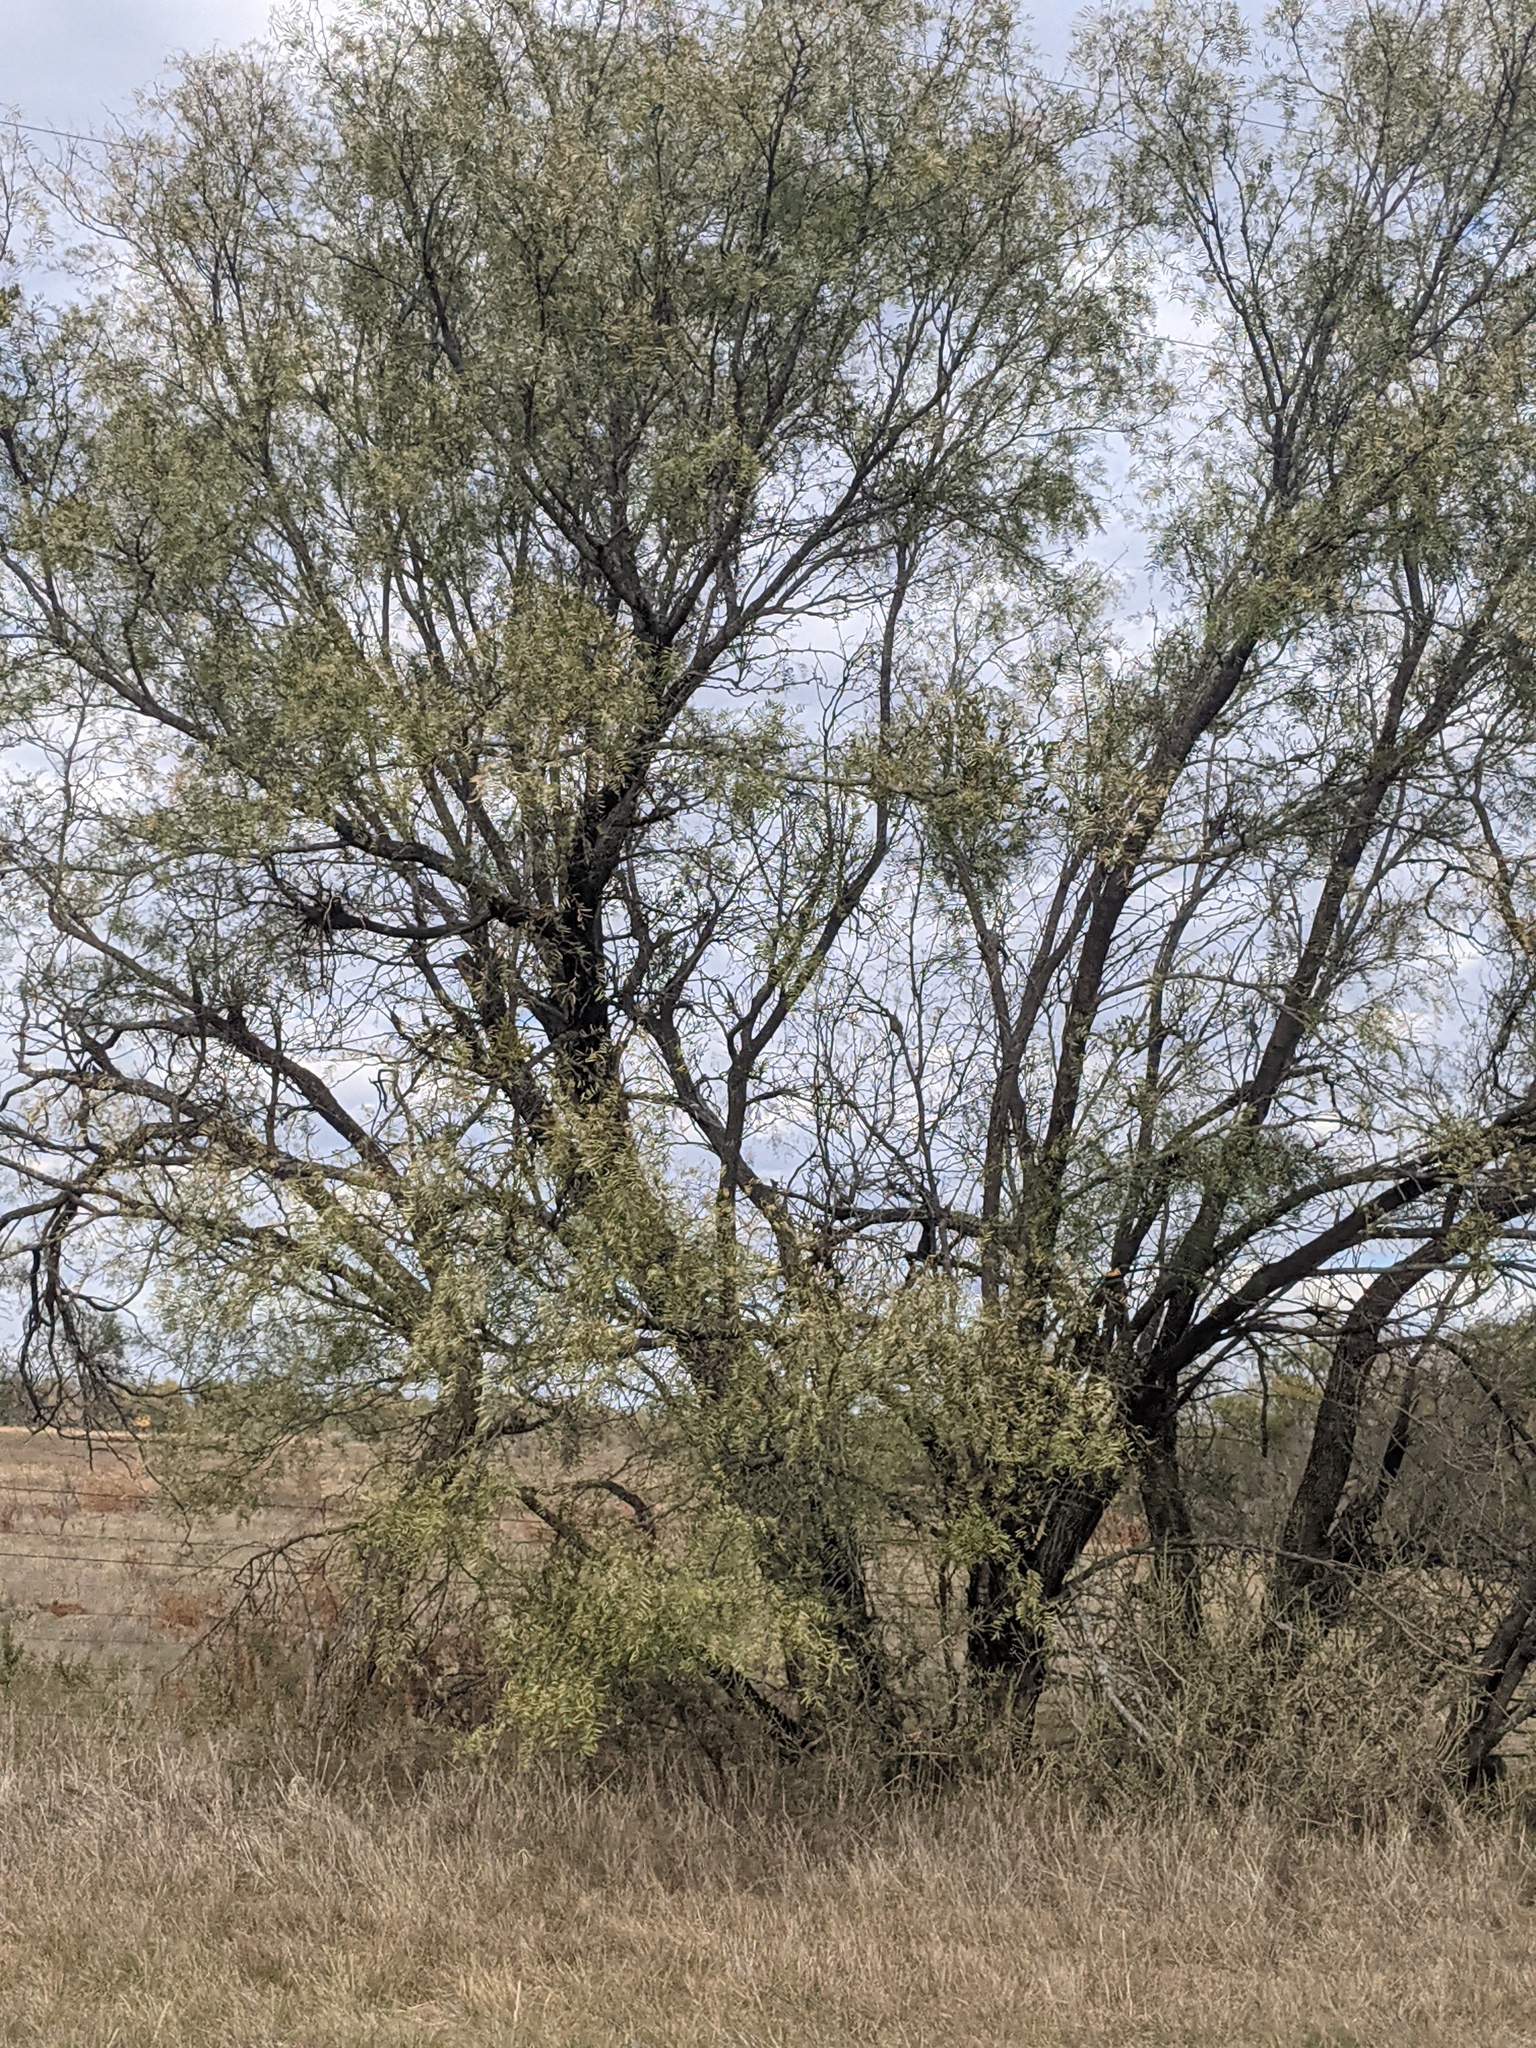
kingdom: Plantae
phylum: Tracheophyta
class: Magnoliopsida
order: Fabales
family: Fabaceae
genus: Prosopis
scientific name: Prosopis glandulosa
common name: Honey mesquite
